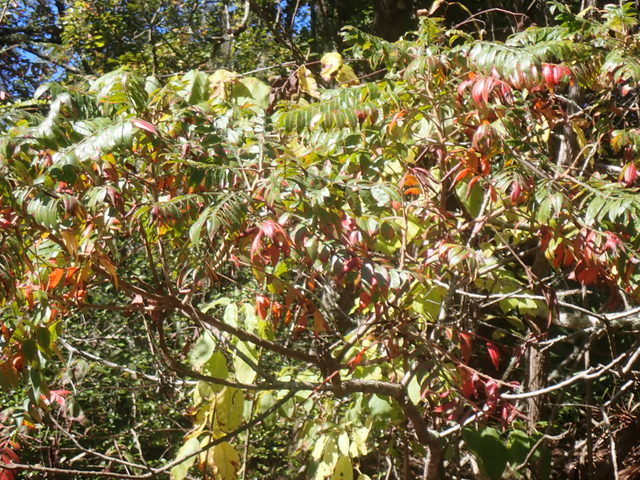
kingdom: Plantae
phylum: Tracheophyta
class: Magnoliopsida
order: Sapindales
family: Anacardiaceae
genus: Rhus
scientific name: Rhus copallina
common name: Shining sumac
